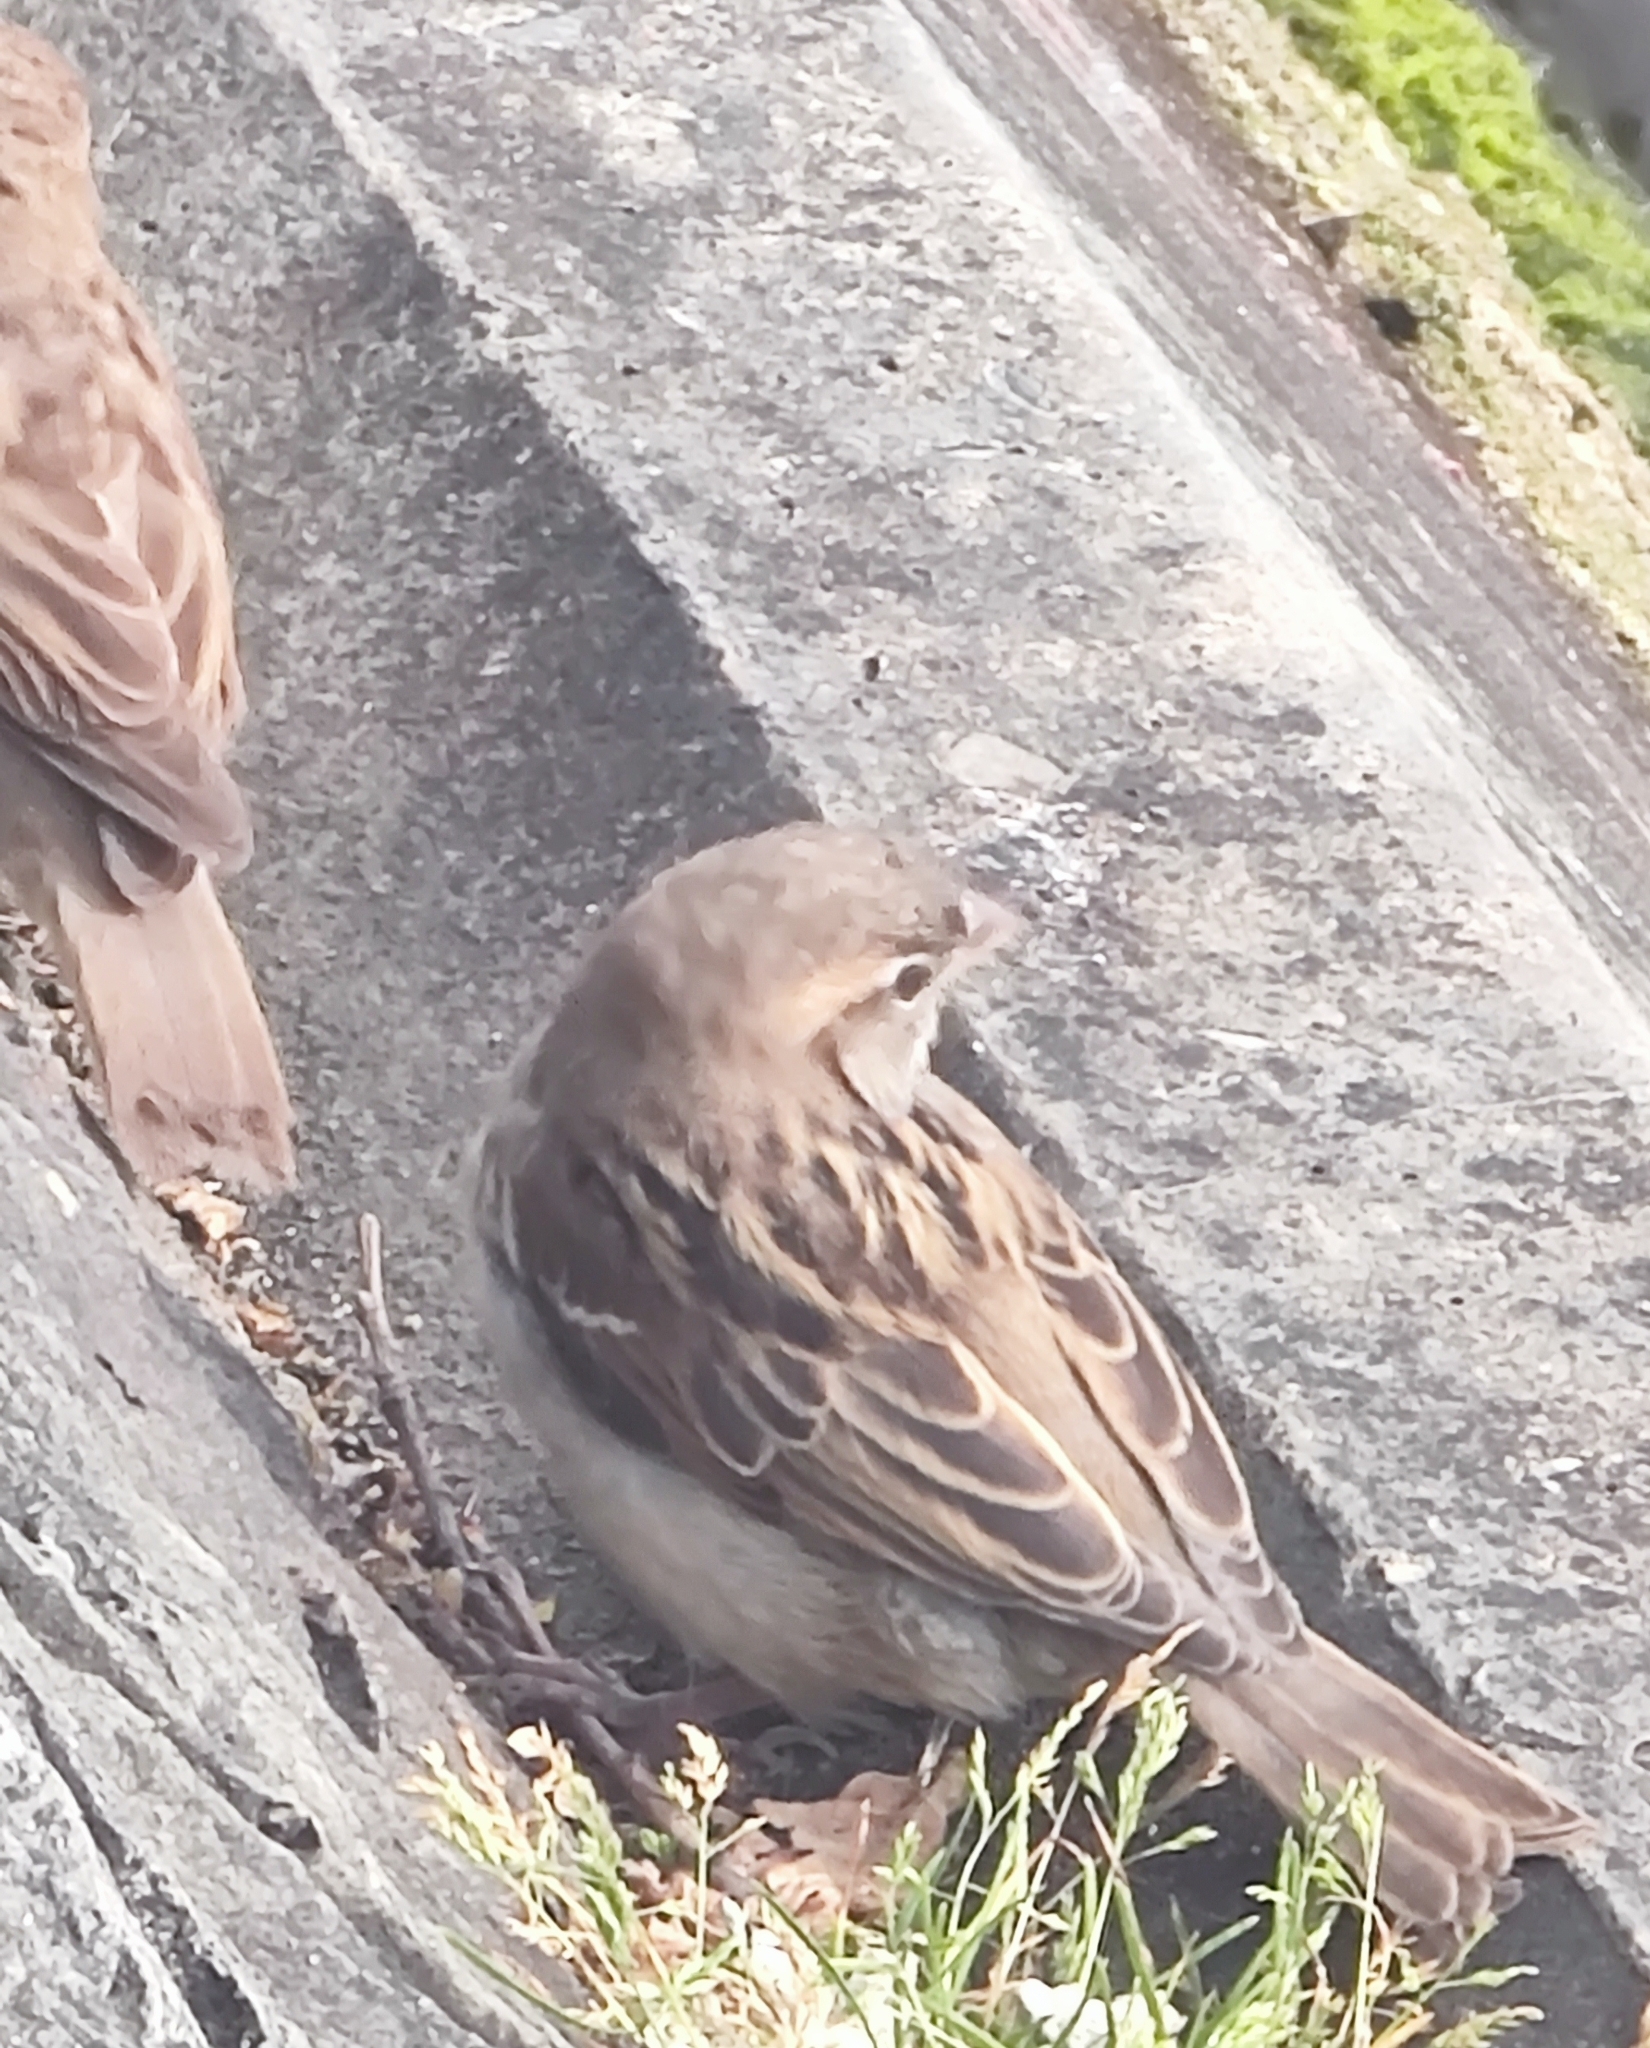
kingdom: Animalia
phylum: Chordata
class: Aves
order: Passeriformes
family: Passeridae
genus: Passer
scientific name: Passer domesticus
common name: House sparrow
